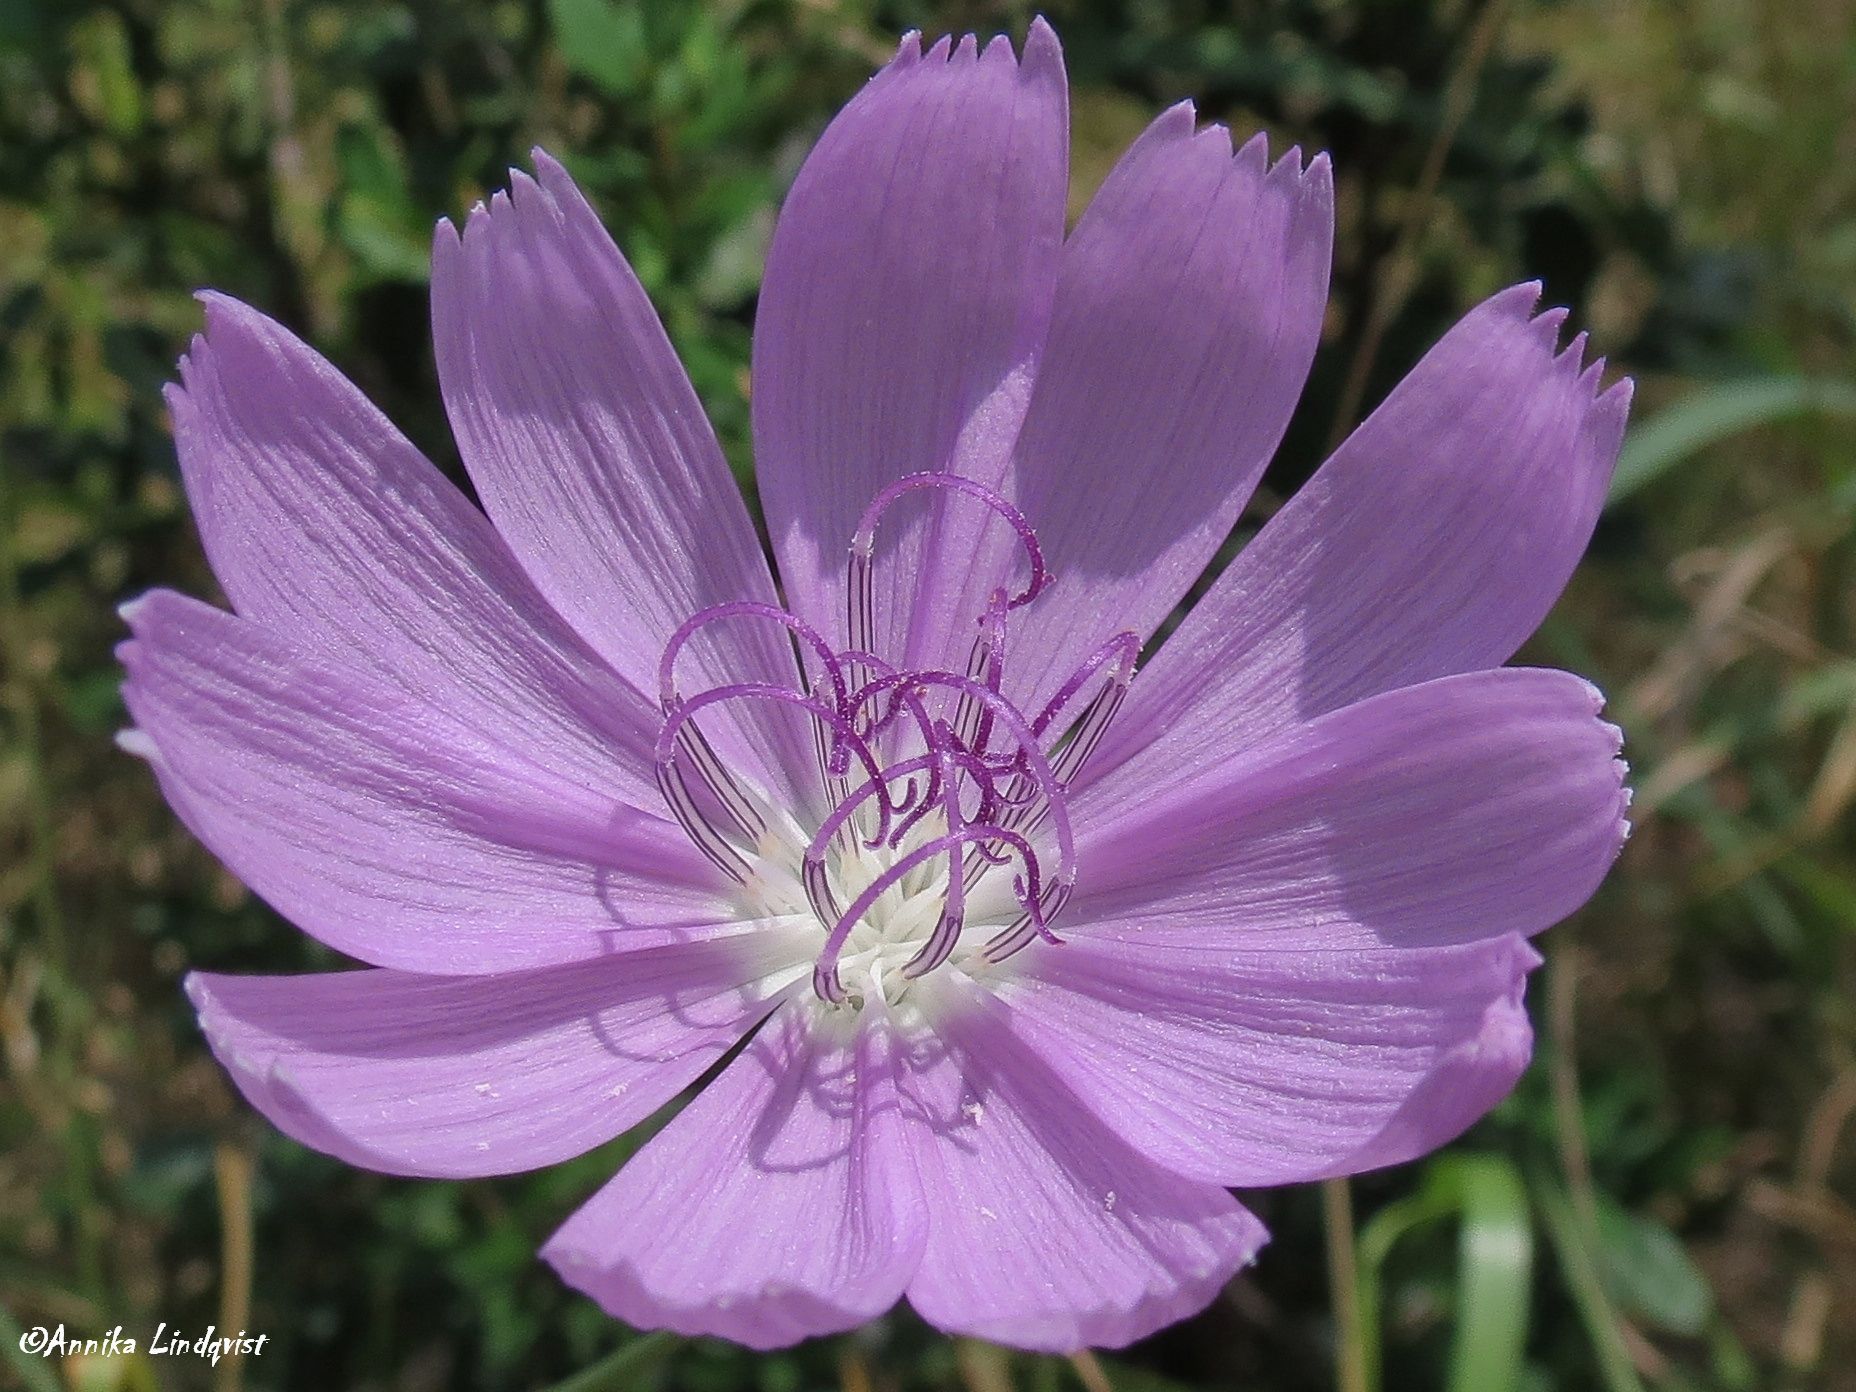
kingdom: Plantae
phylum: Tracheophyta
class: Magnoliopsida
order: Asterales
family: Asteraceae
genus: Lygodesmia
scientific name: Lygodesmia texana
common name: Texas skeleton-plant
